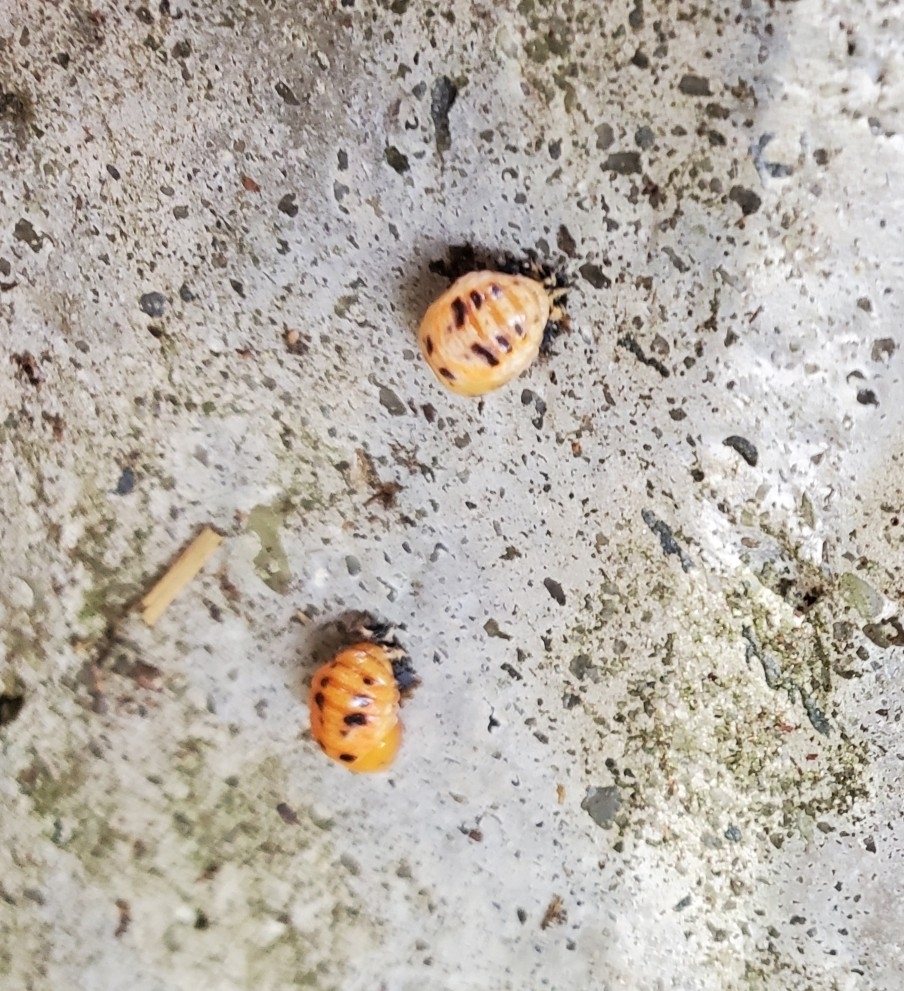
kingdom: Animalia
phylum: Arthropoda
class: Insecta
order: Coleoptera
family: Coccinellidae
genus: Harmonia
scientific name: Harmonia axyridis
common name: Harlequin ladybird
